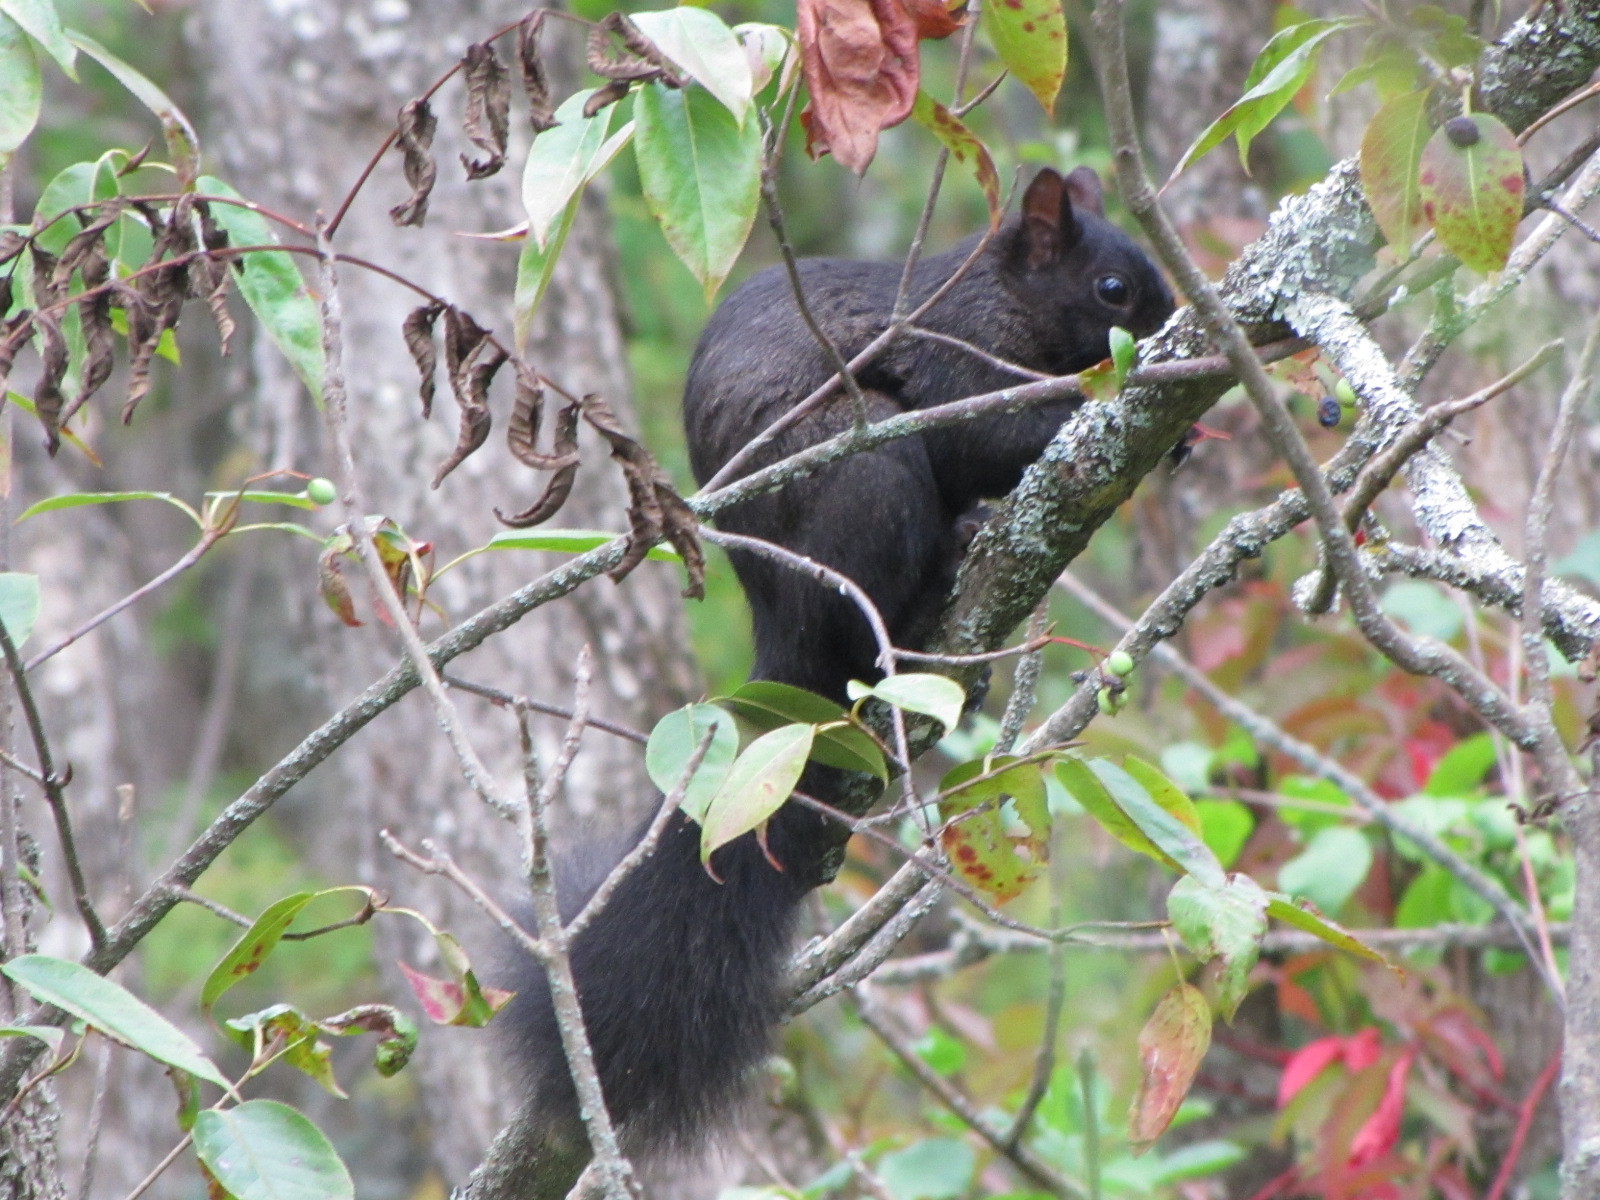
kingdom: Animalia
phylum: Chordata
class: Mammalia
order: Rodentia
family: Sciuridae
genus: Sciurus
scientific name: Sciurus carolinensis
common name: Eastern gray squirrel
